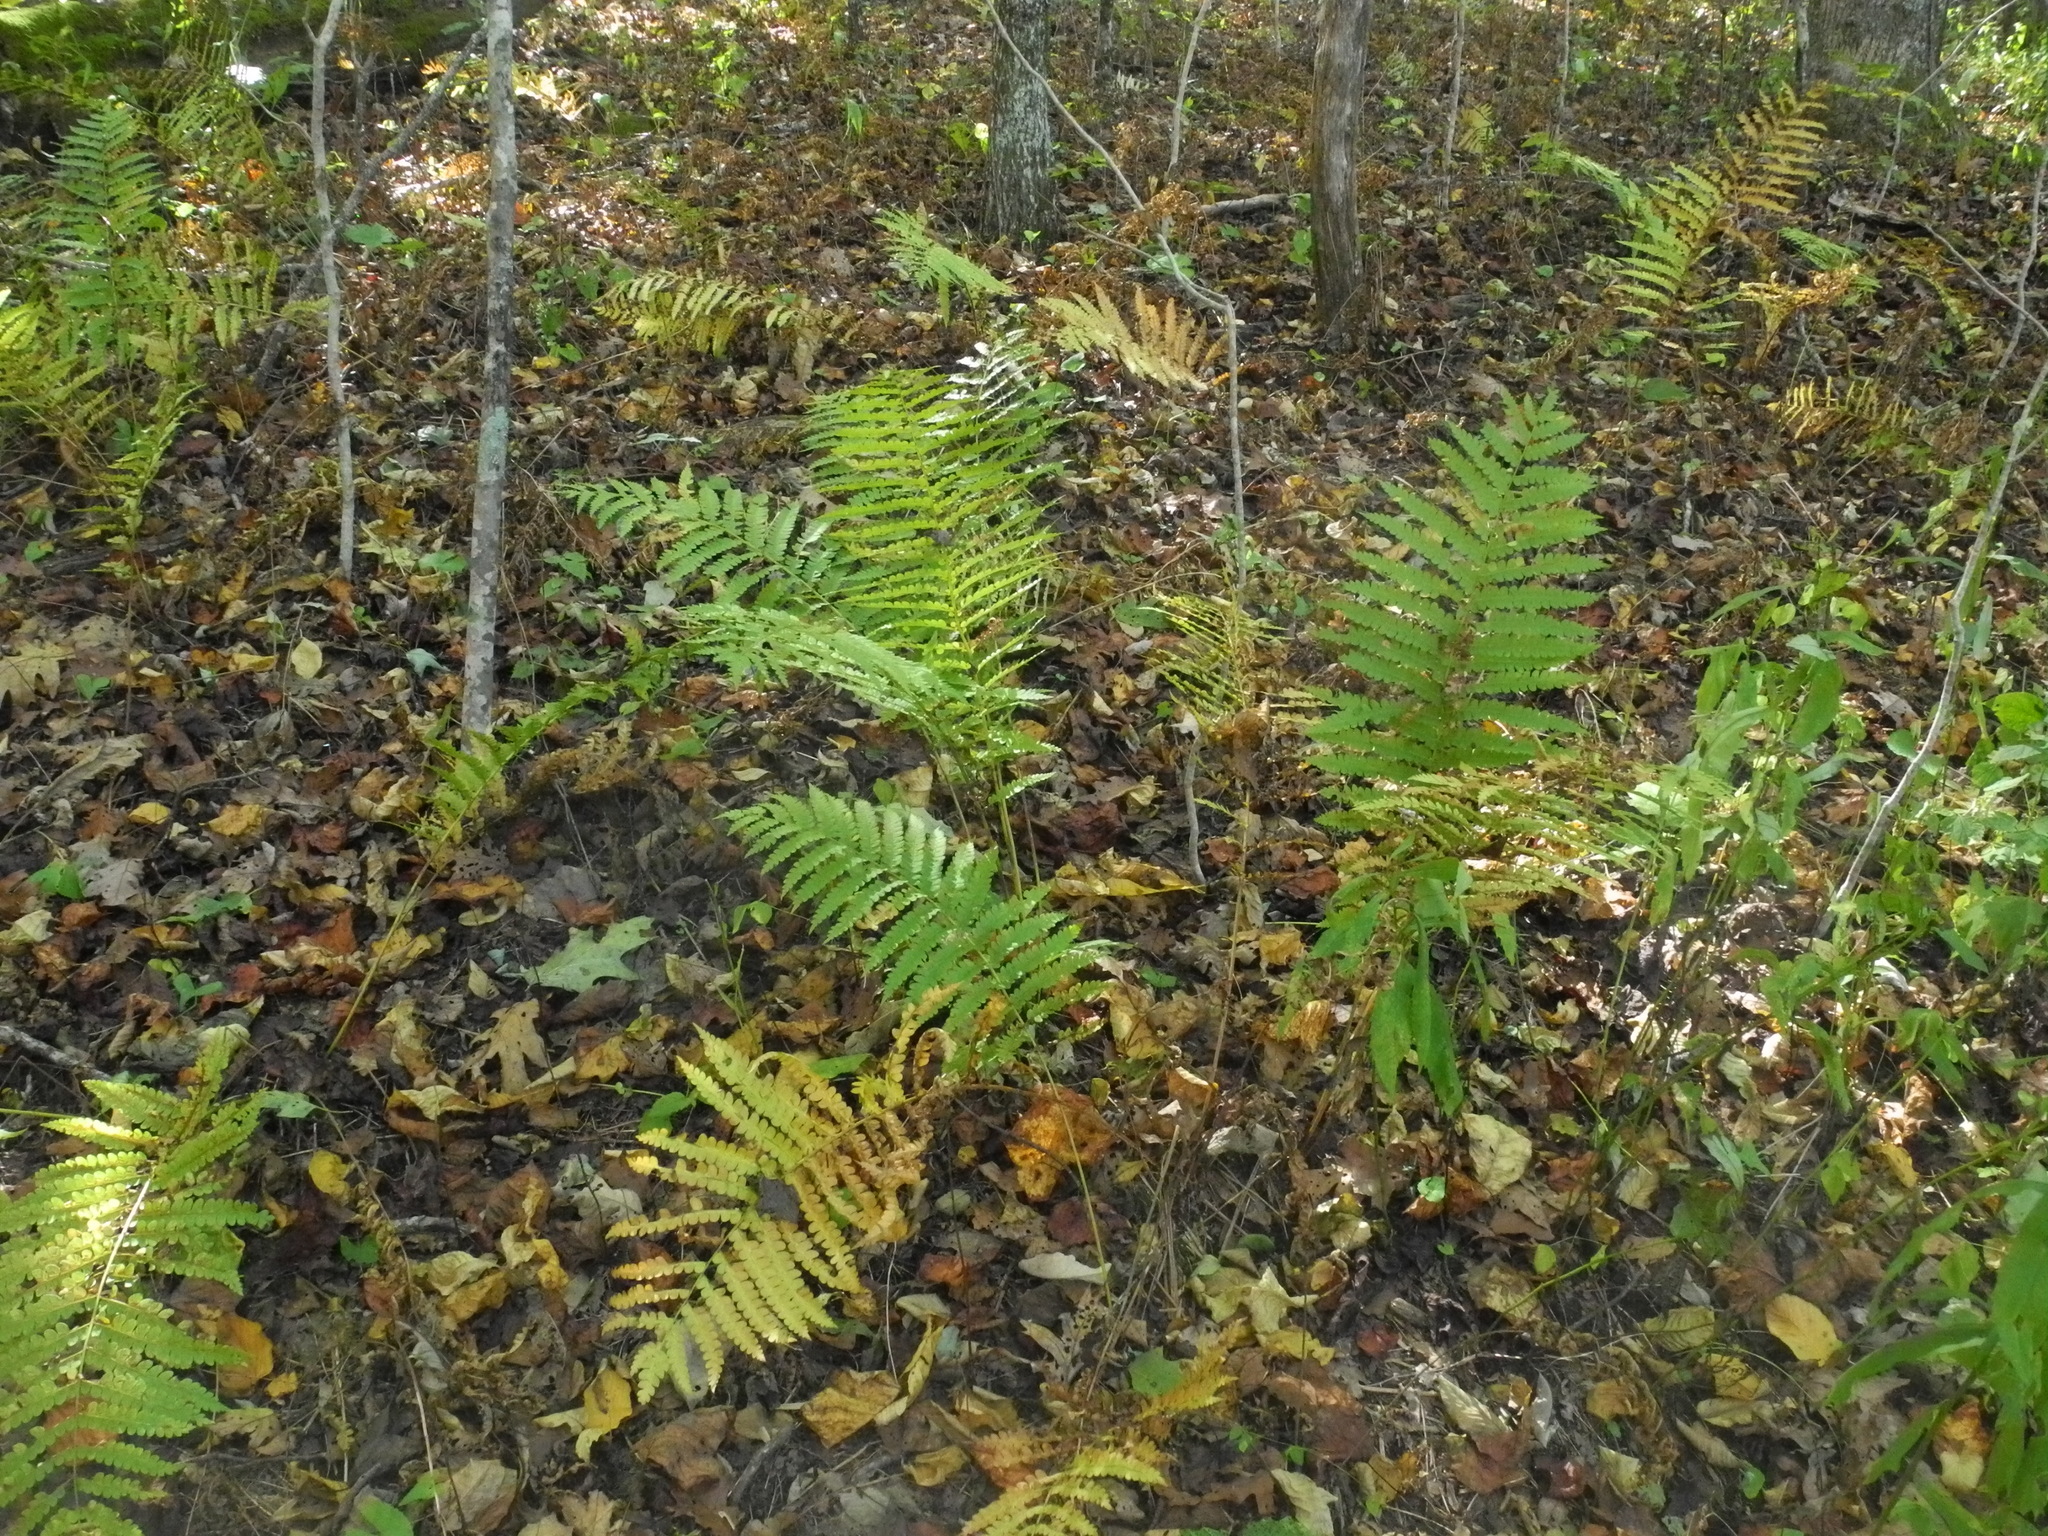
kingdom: Plantae
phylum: Tracheophyta
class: Polypodiopsida
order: Osmundales
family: Osmundaceae
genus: Osmundastrum
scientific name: Osmundastrum cinnamomeum
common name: Cinnamon fern
